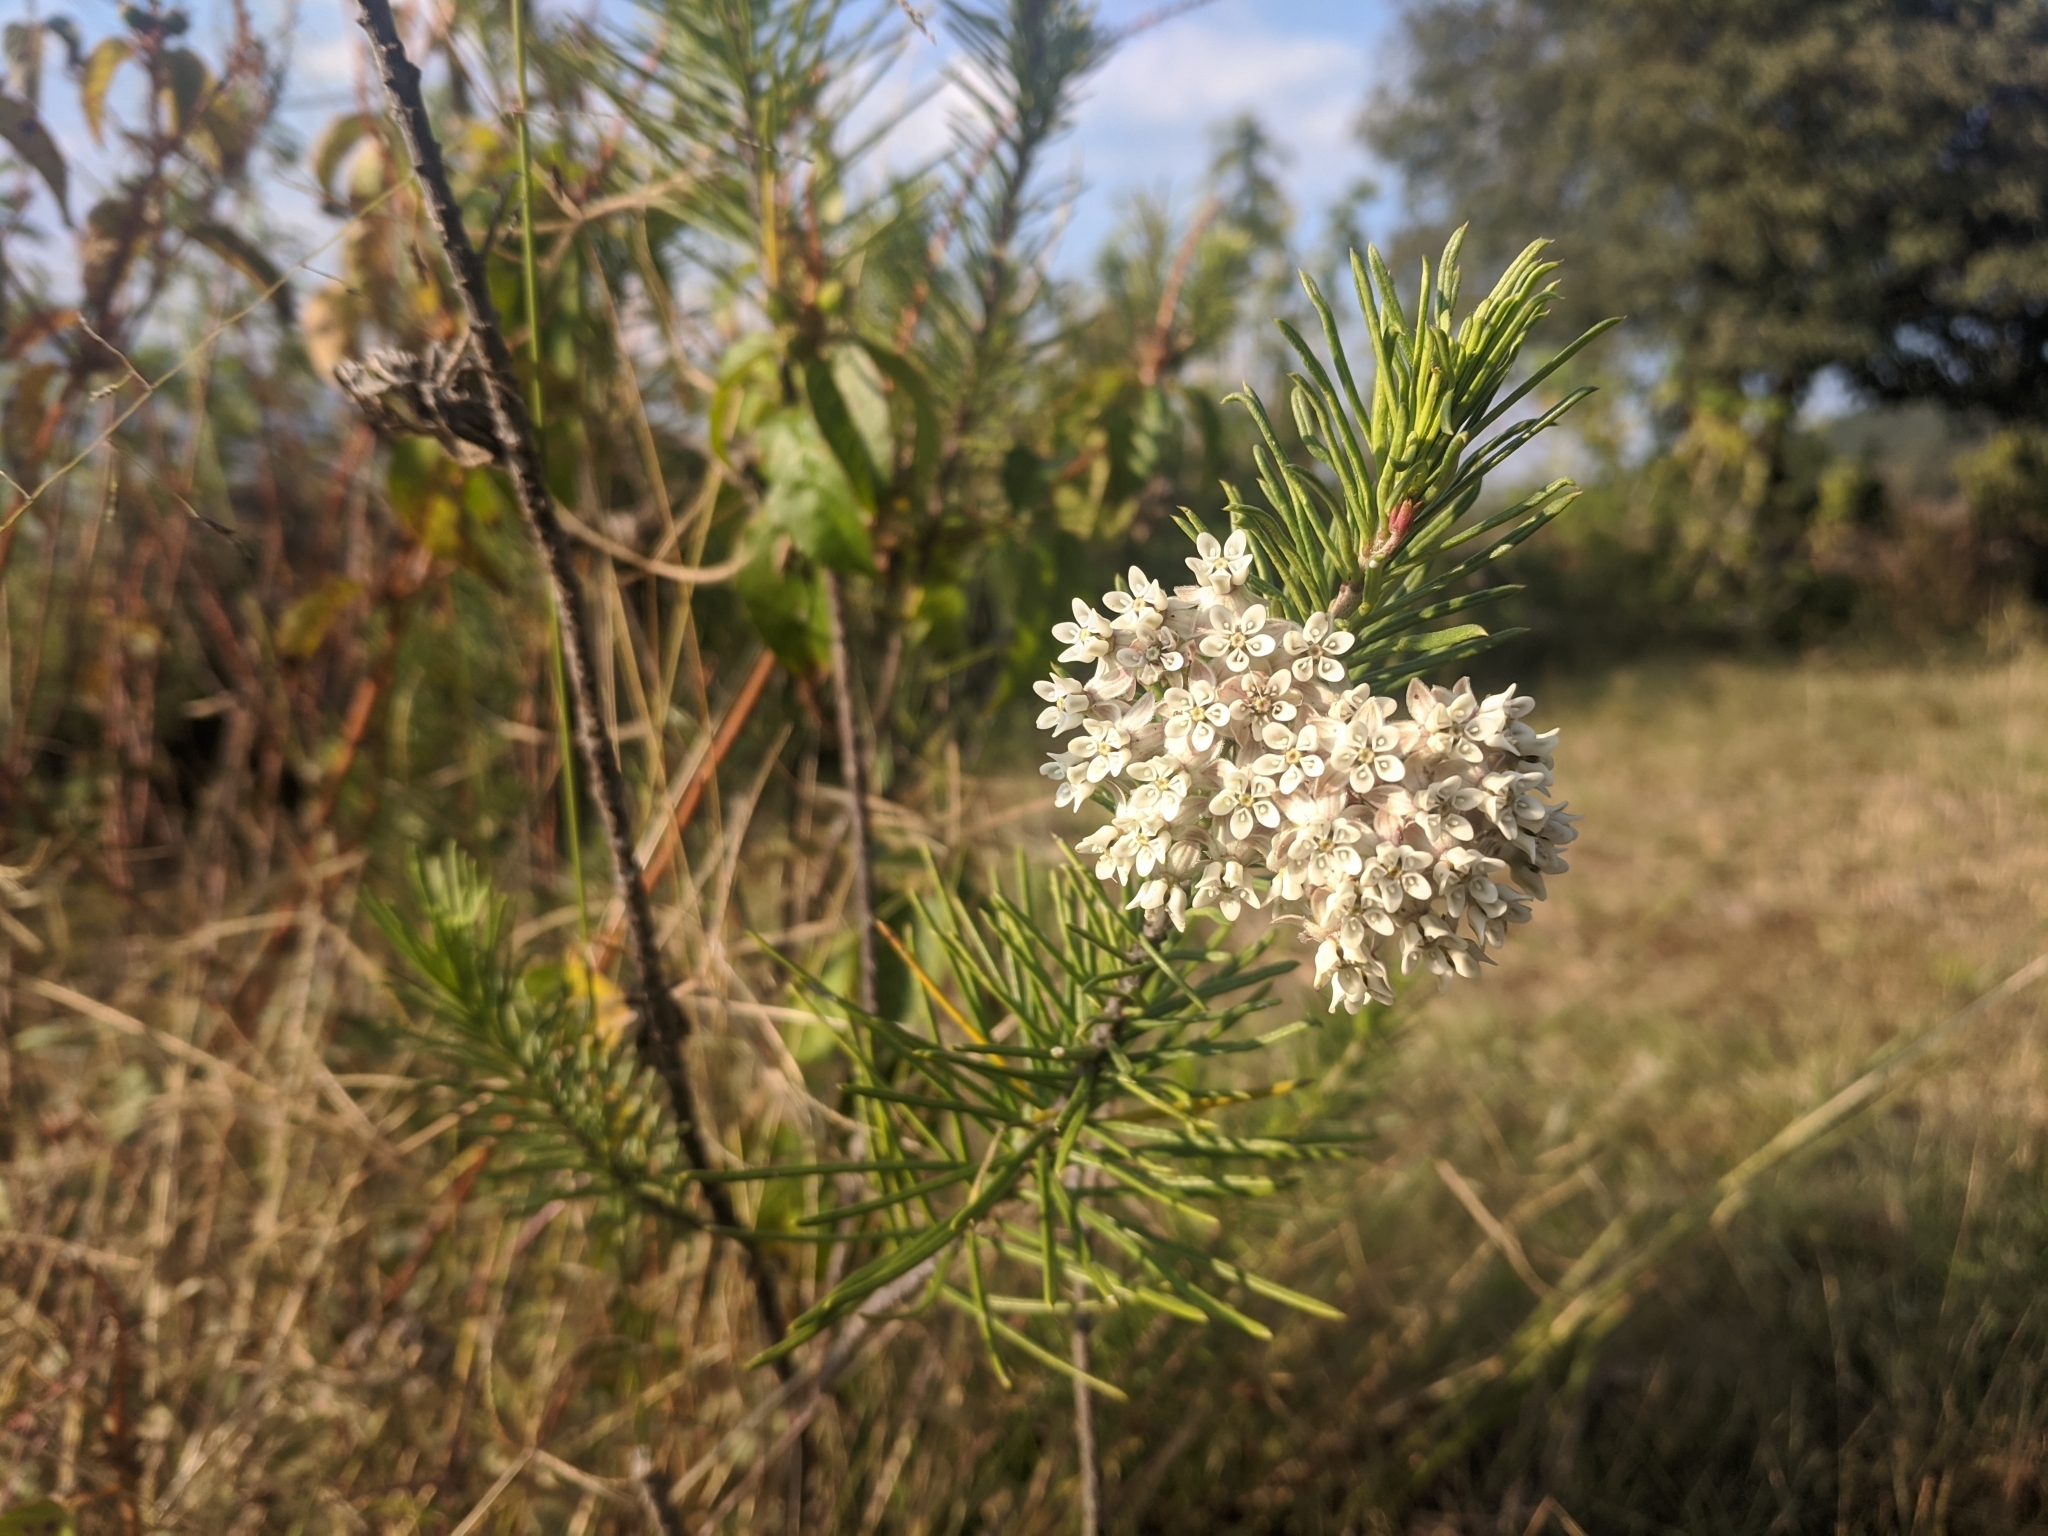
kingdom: Plantae
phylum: Tracheophyta
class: Magnoliopsida
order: Gentianales
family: Apocynaceae
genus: Asclepias
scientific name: Asclepias linaria
